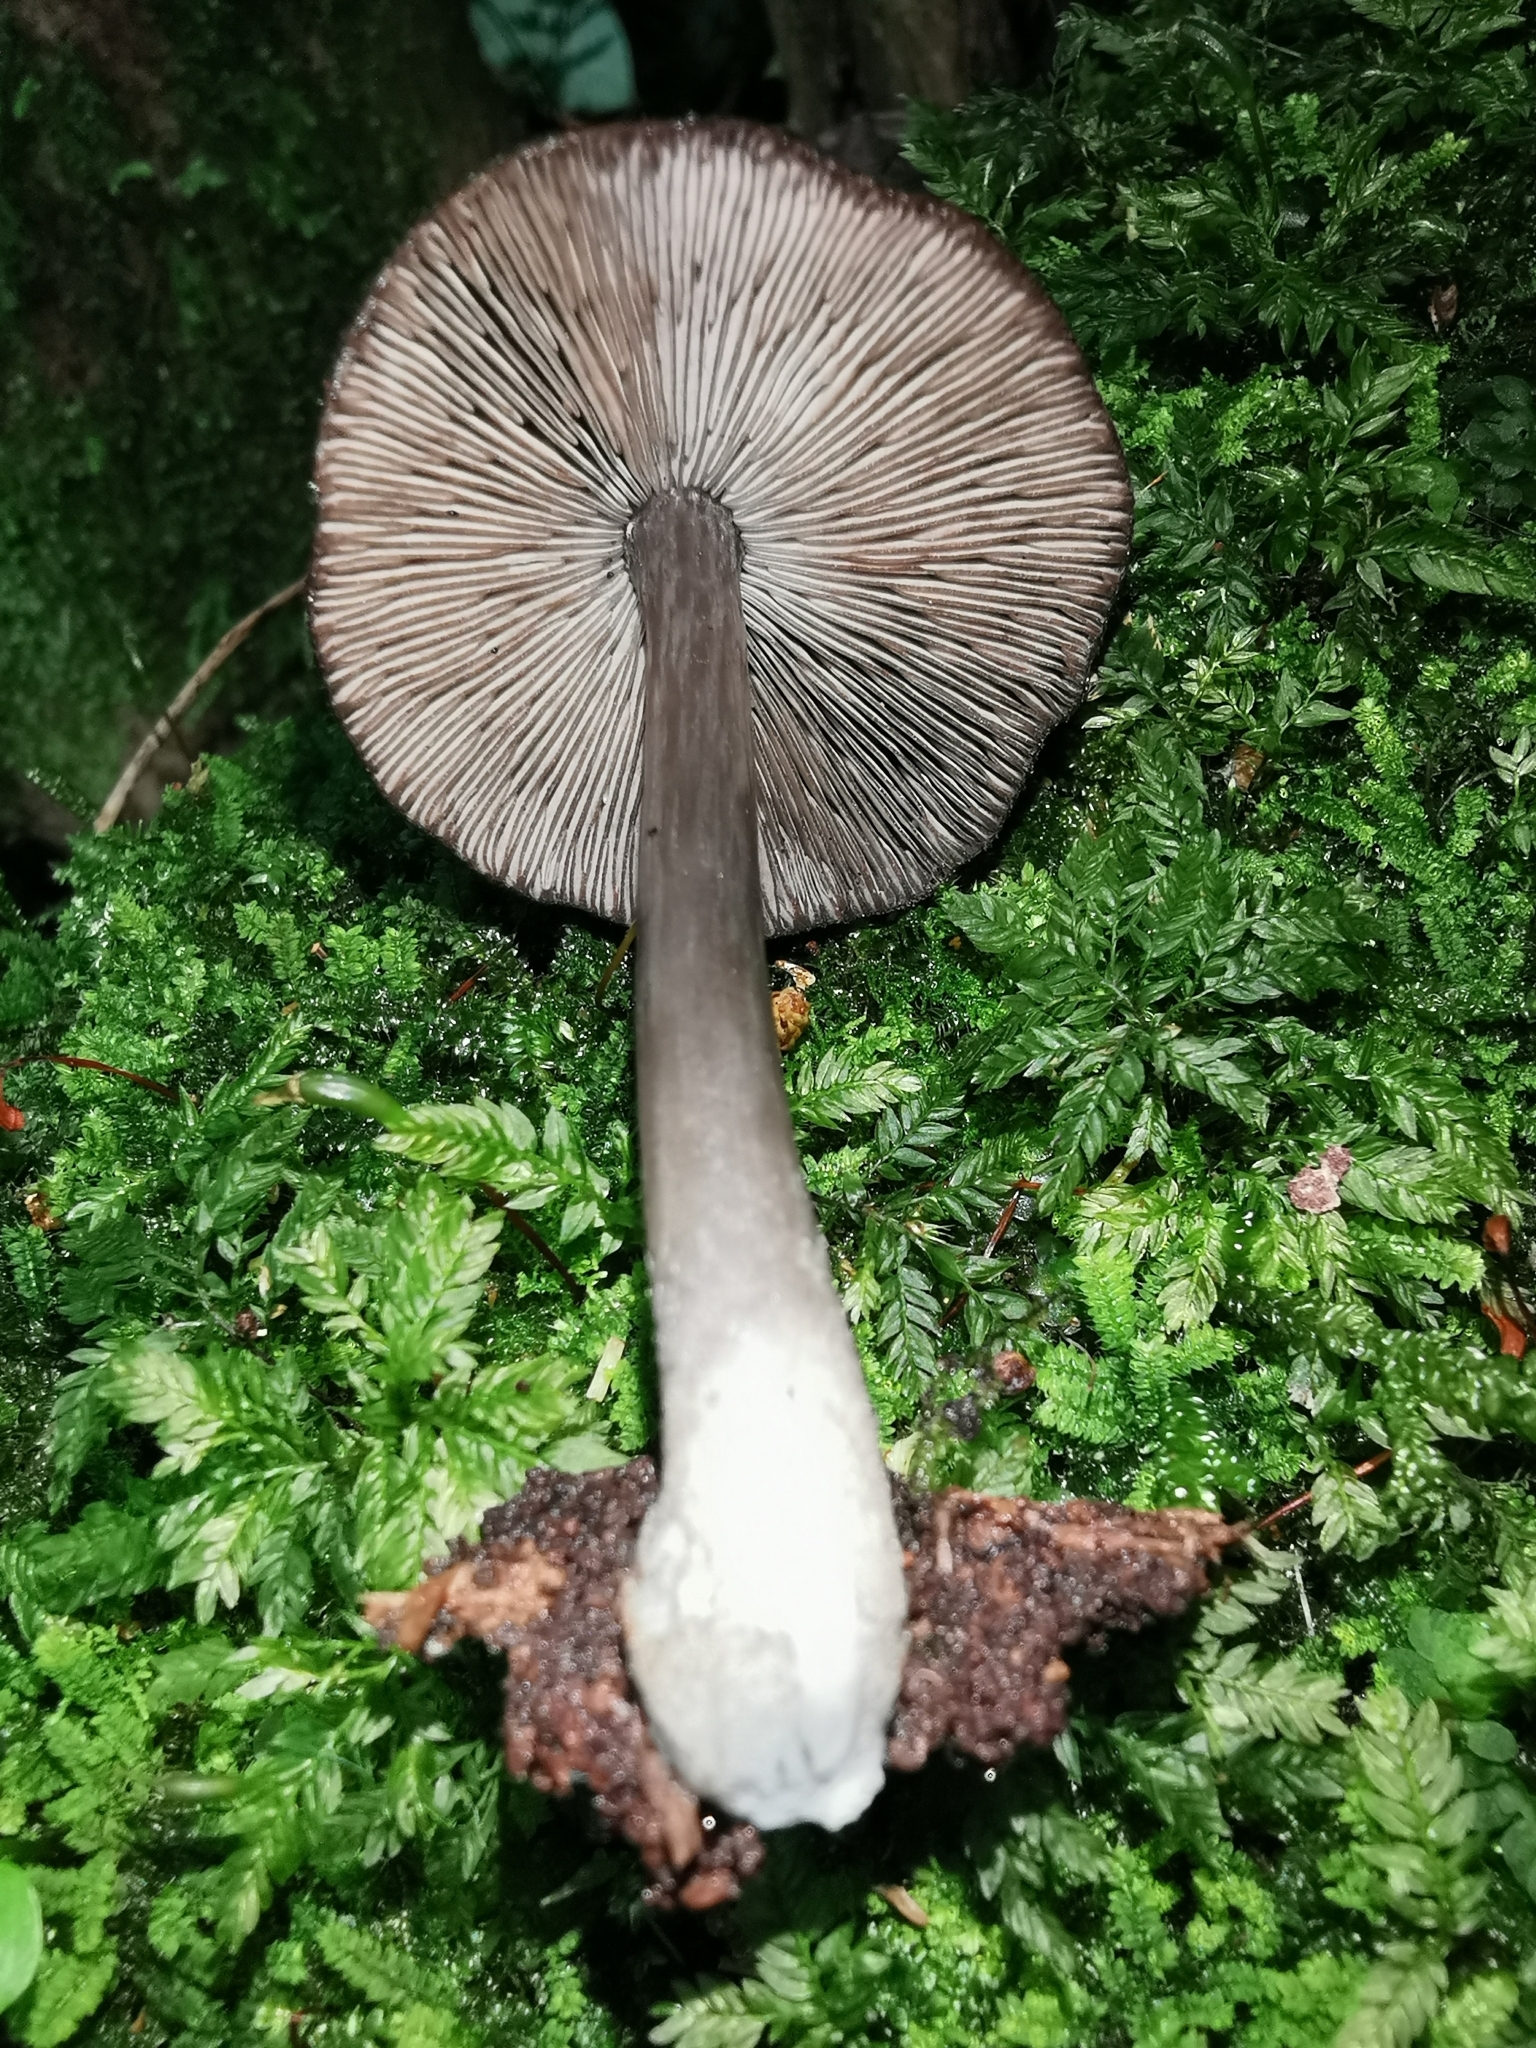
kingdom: Fungi
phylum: Basidiomycota
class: Agaricomycetes
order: Agaricales
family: Pluteaceae
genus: Pluteus
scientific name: Pluteus velutinornatus
